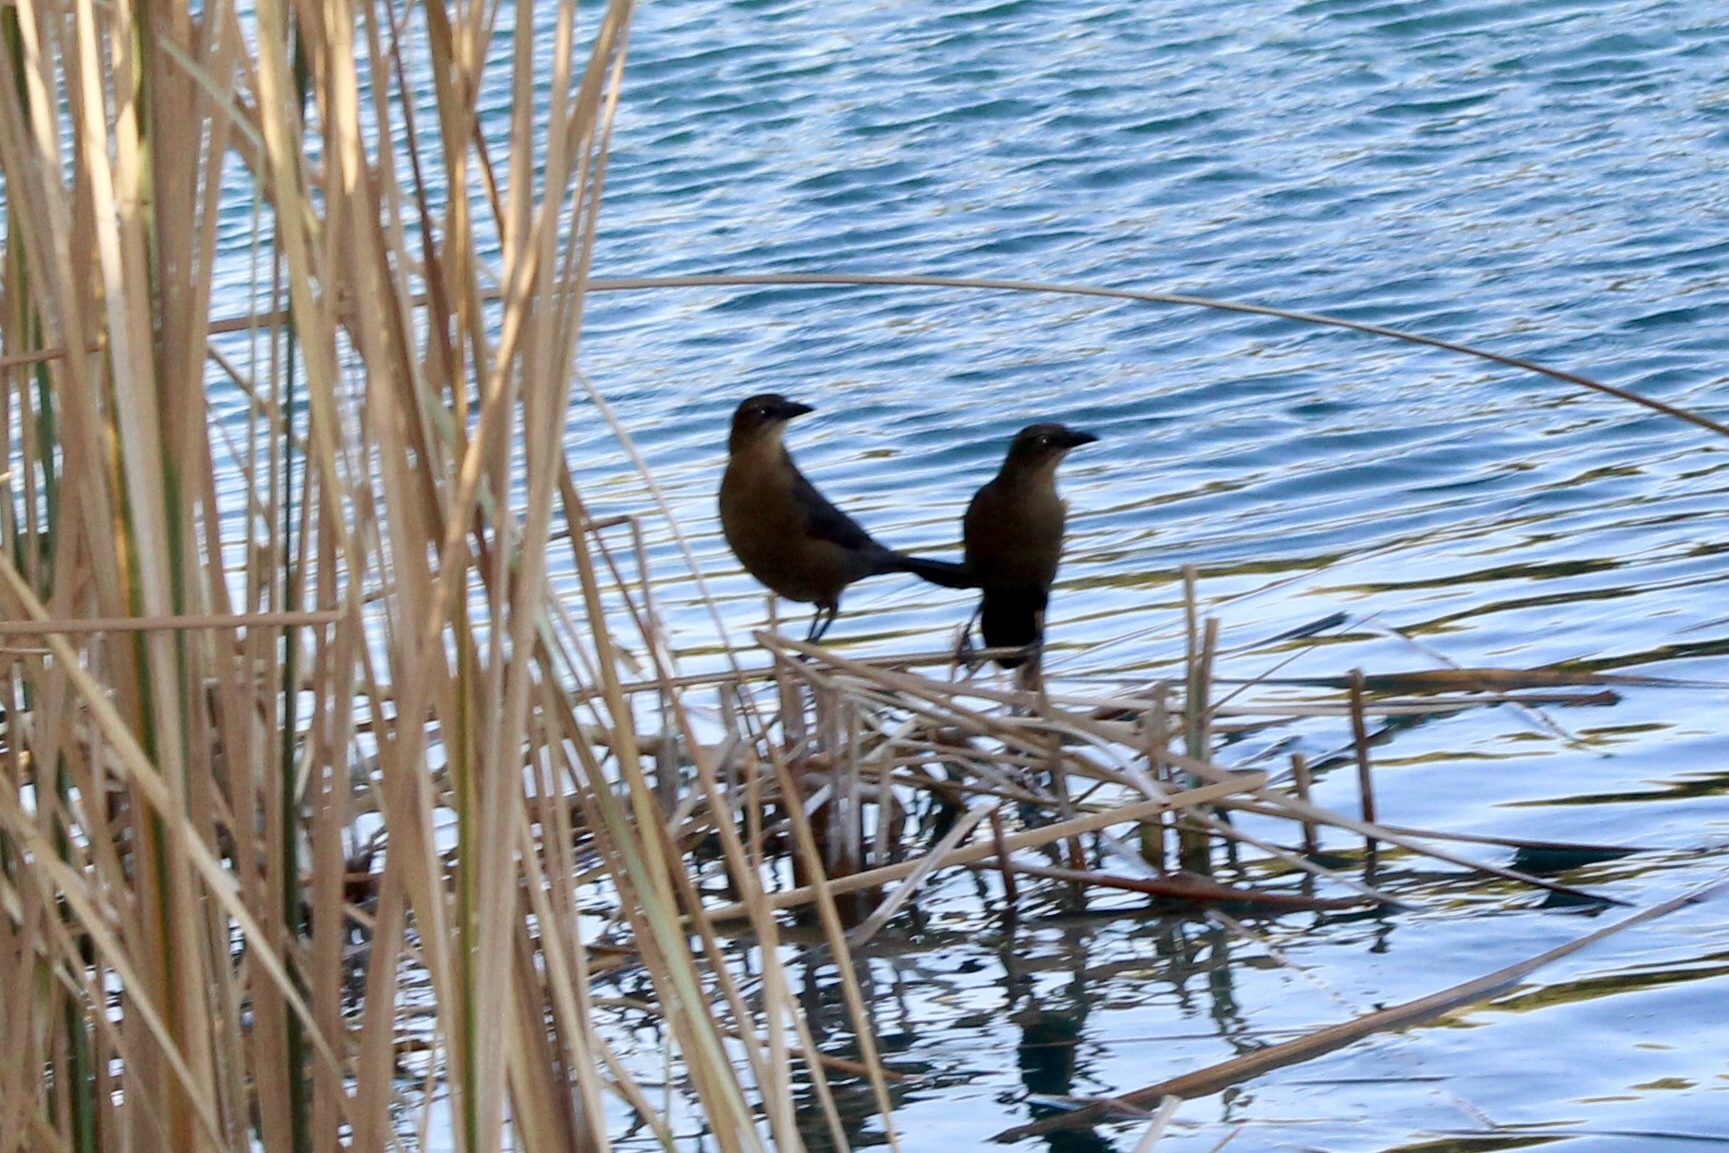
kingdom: Animalia
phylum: Chordata
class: Aves
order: Passeriformes
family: Icteridae
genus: Quiscalus
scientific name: Quiscalus mexicanus
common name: Great-tailed grackle
